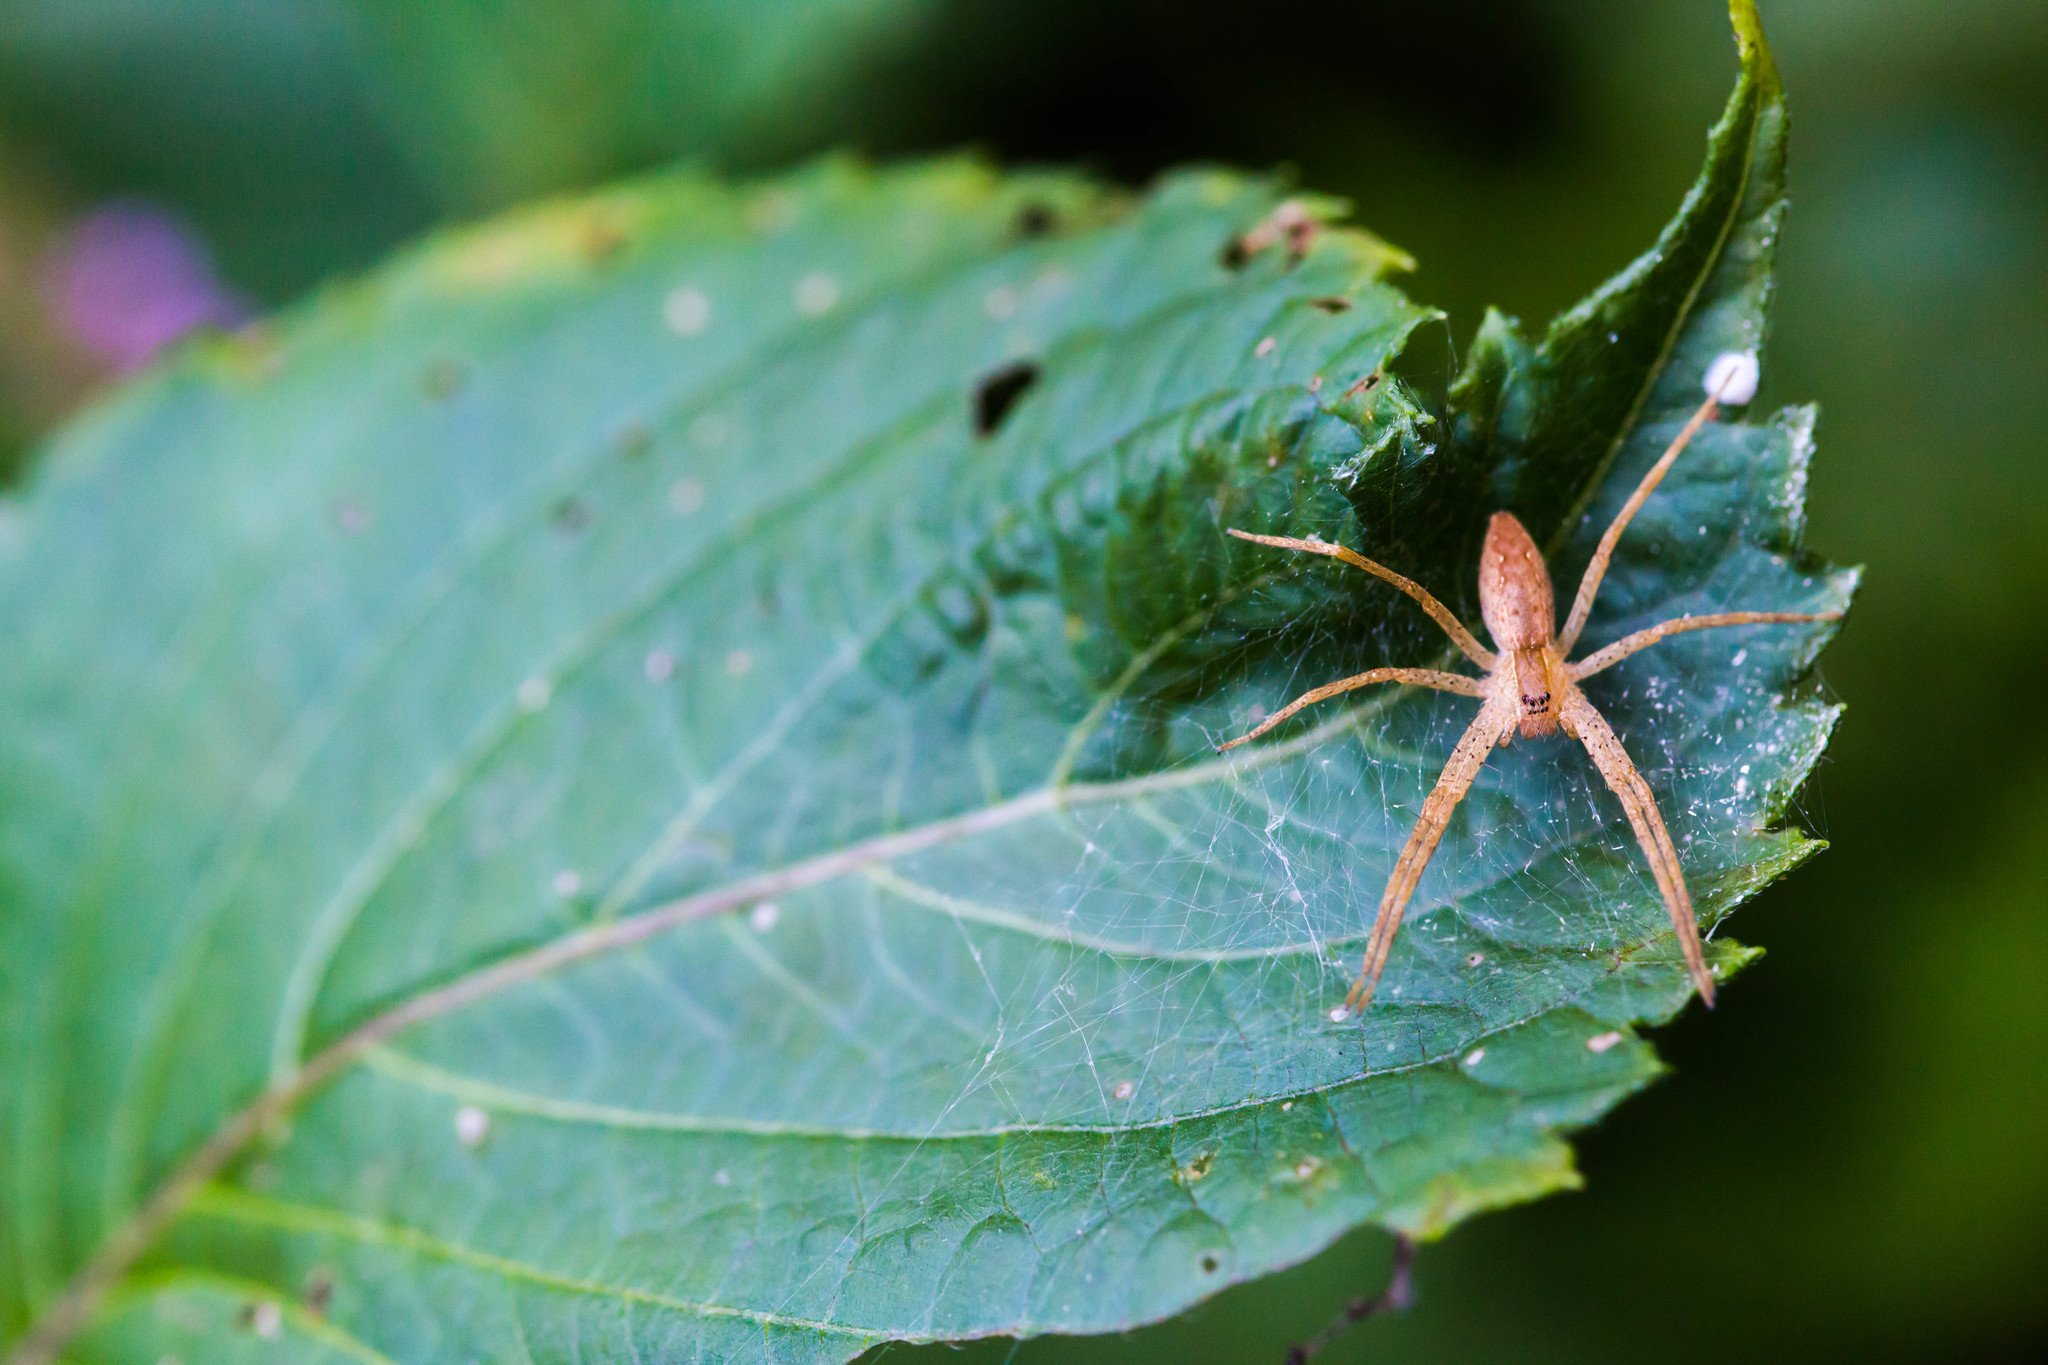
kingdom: Animalia
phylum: Arthropoda
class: Arachnida
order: Araneae
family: Pisauridae
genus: Pisaurina
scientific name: Pisaurina mira
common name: American nursery web spider
